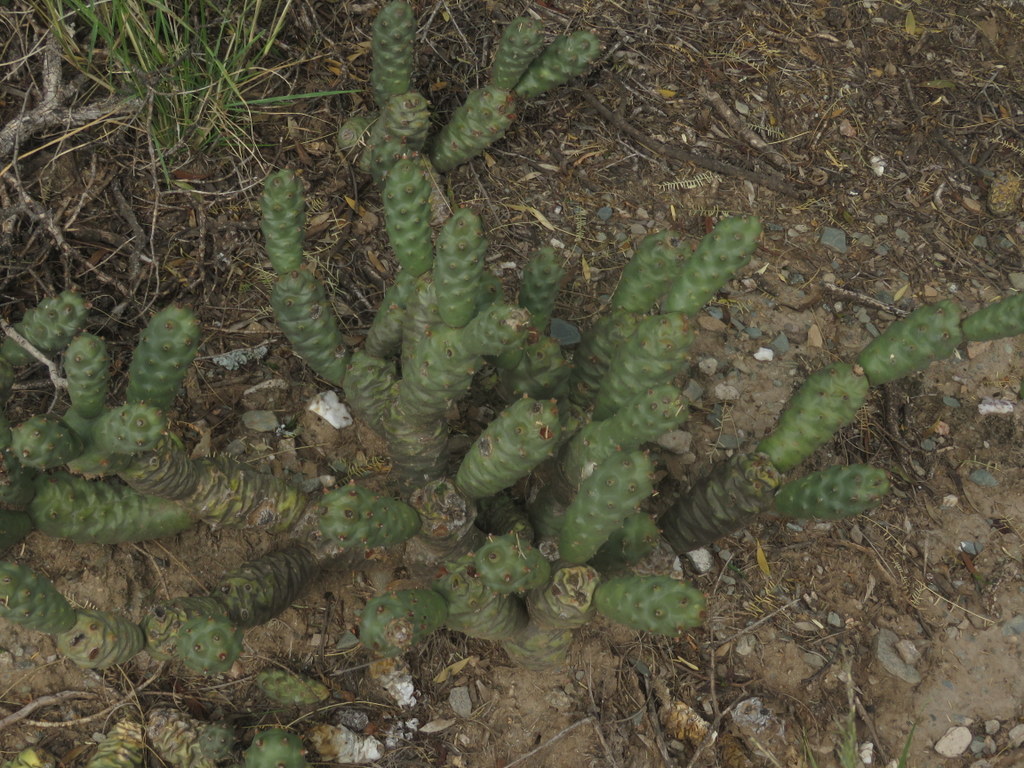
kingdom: Plantae
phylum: Tracheophyta
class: Magnoliopsida
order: Caryophyllales
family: Cactaceae
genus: Tephrocactus
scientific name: Tephrocactus articulatus
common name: Paper cactus
